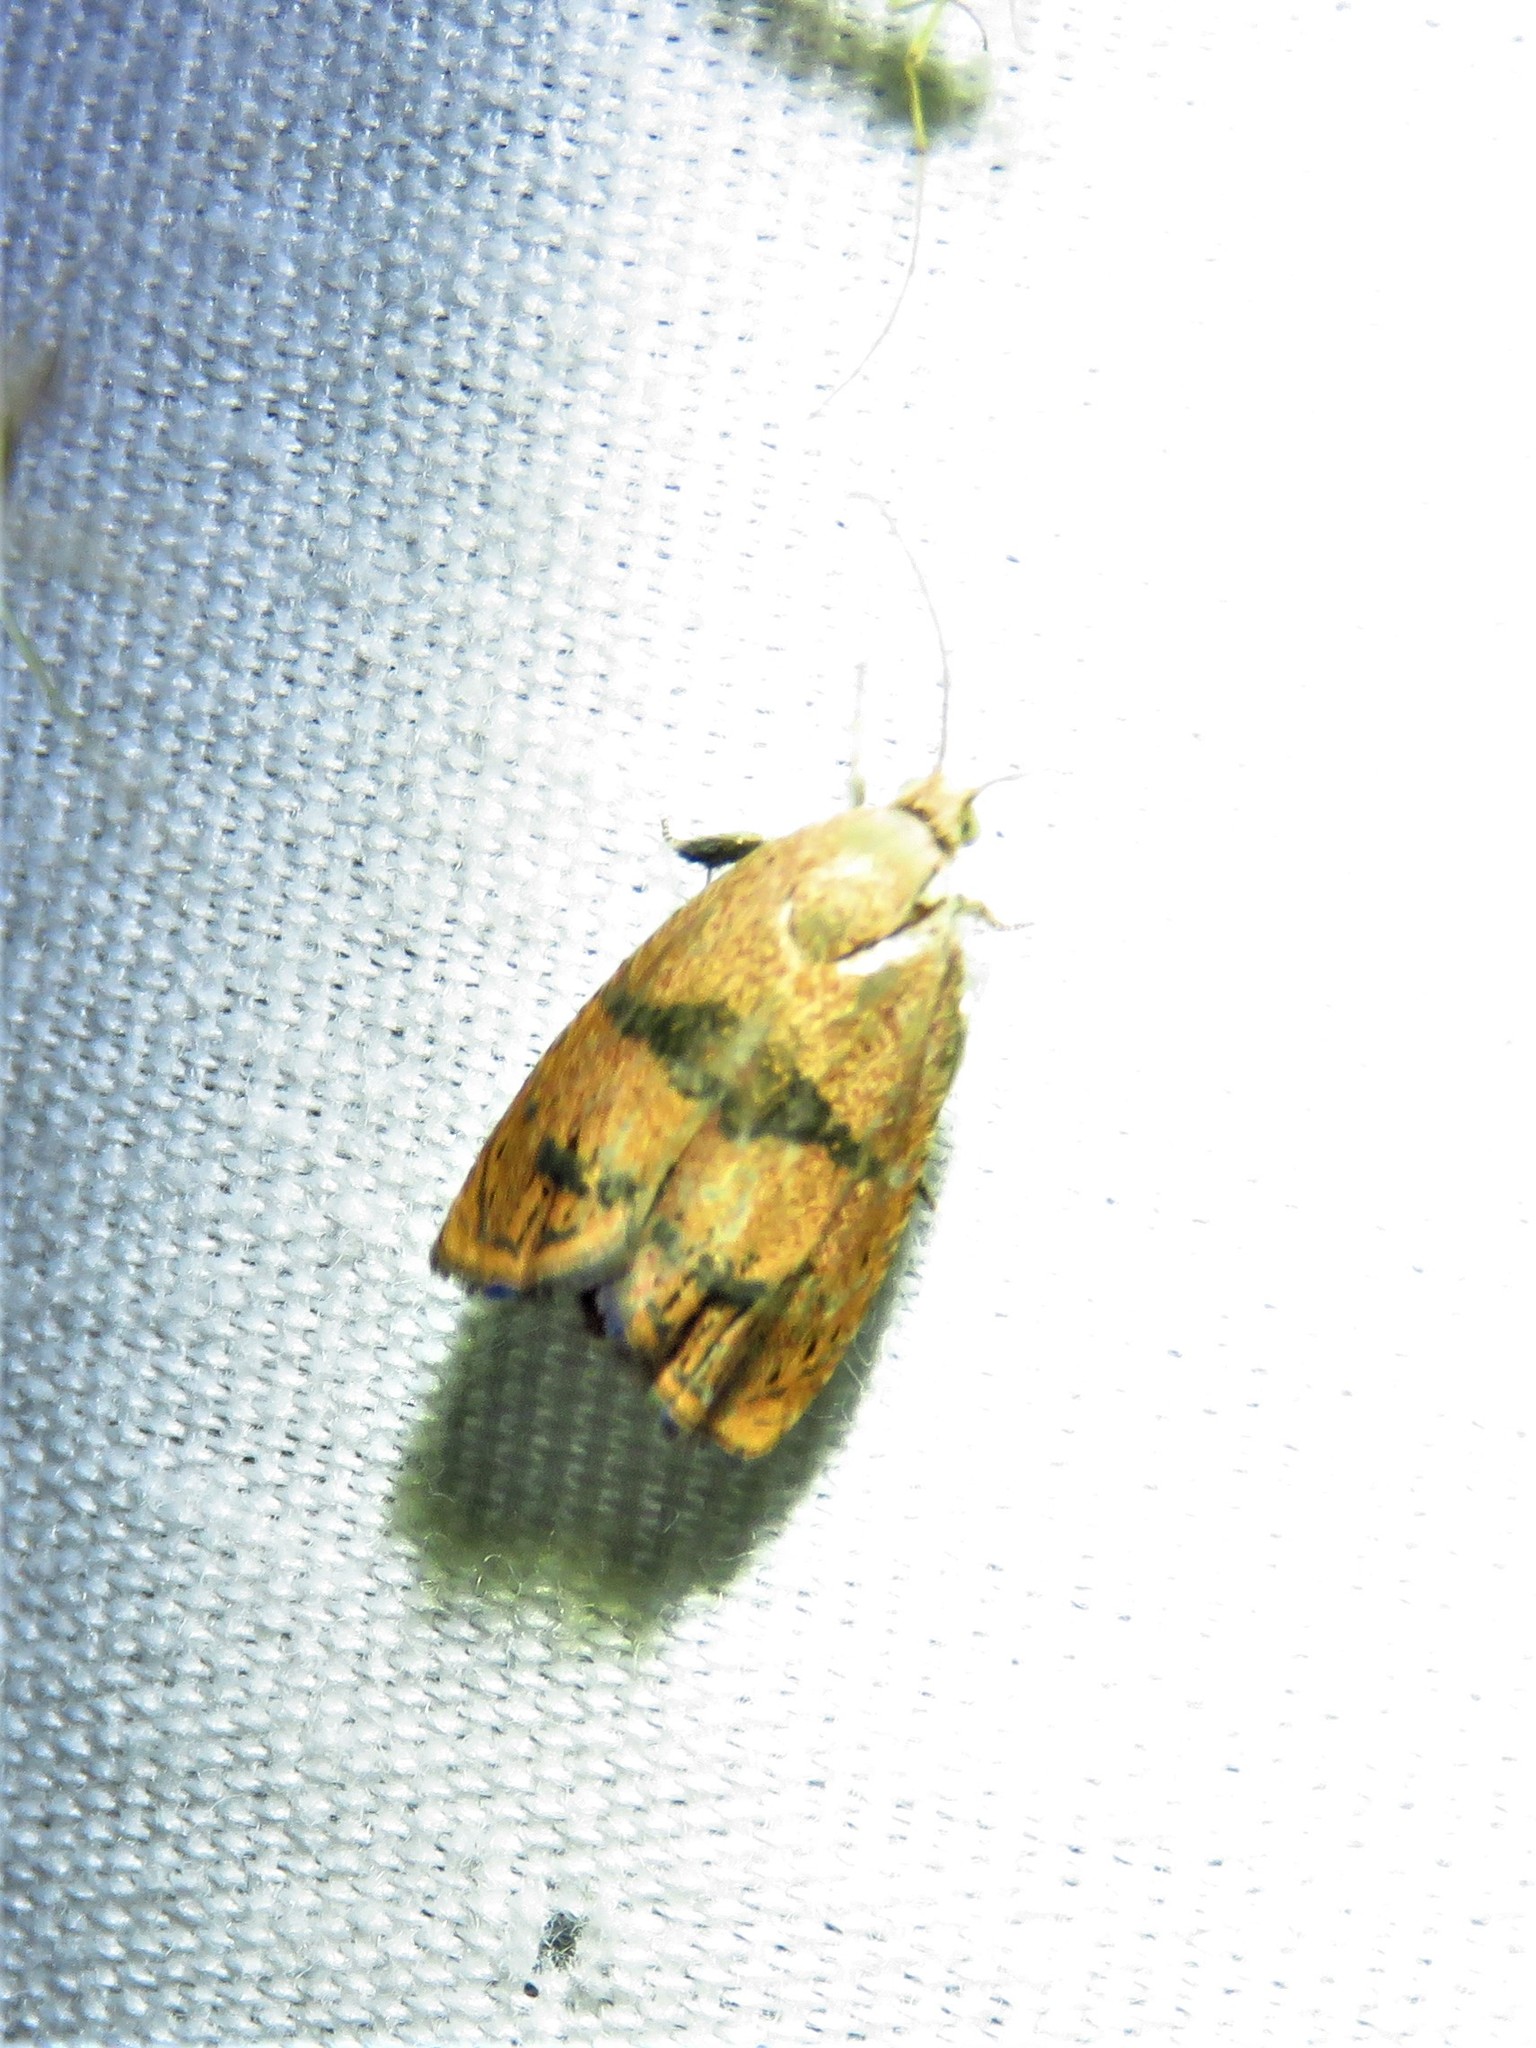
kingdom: Animalia
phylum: Arthropoda
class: Insecta
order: Lepidoptera
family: Tortricidae
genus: Cydia
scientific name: Cydia latiferreana
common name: Filbertworm moth
